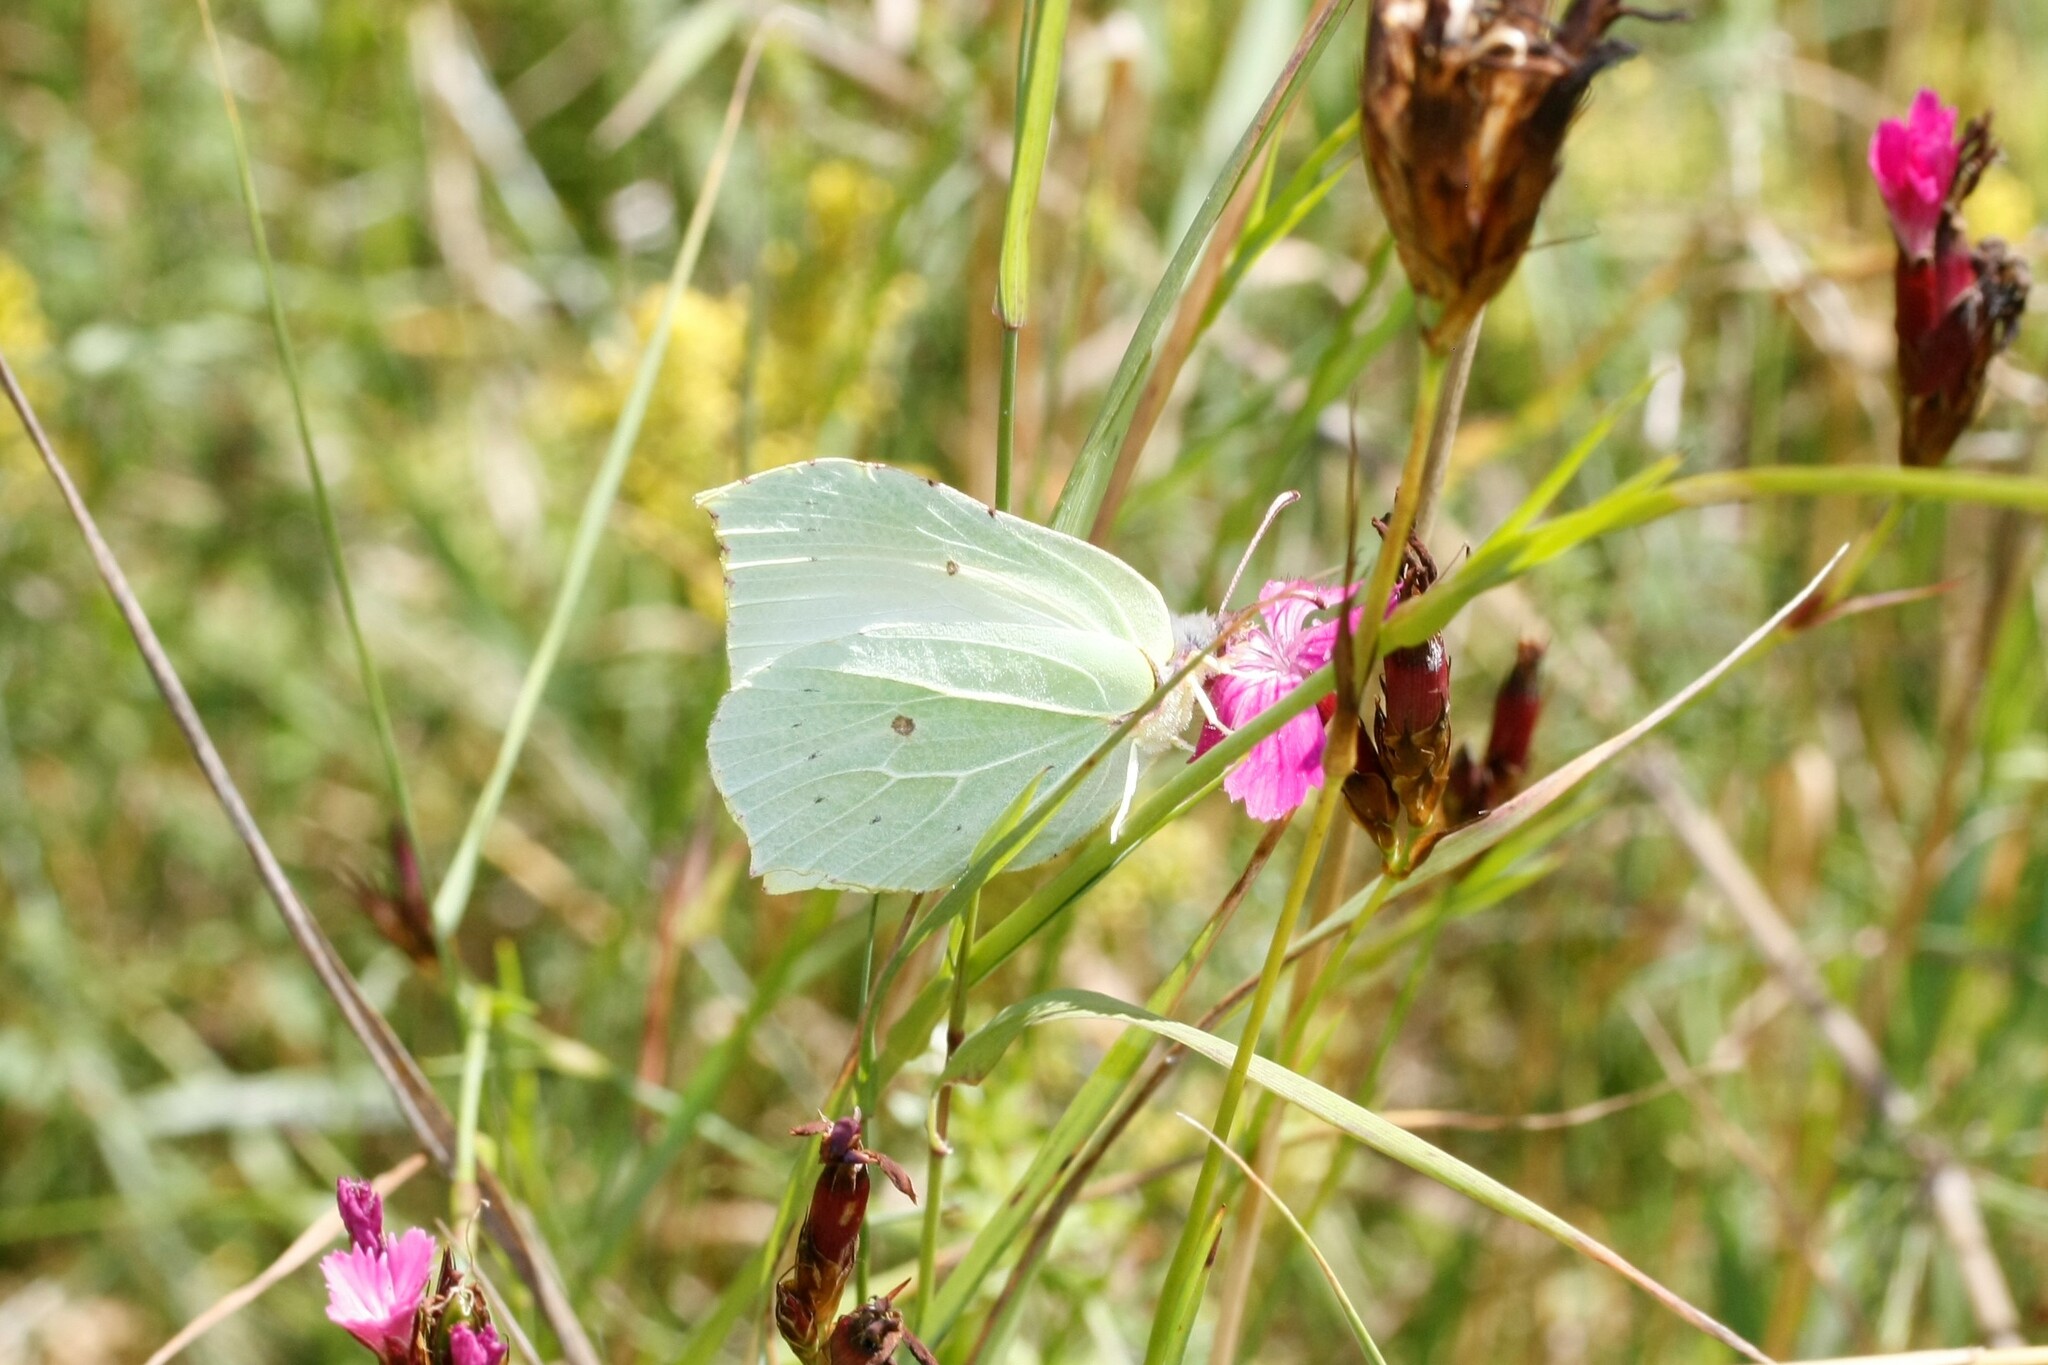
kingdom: Animalia
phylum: Arthropoda
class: Insecta
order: Lepidoptera
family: Pieridae
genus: Gonepteryx
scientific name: Gonepteryx rhamni
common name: Brimstone
